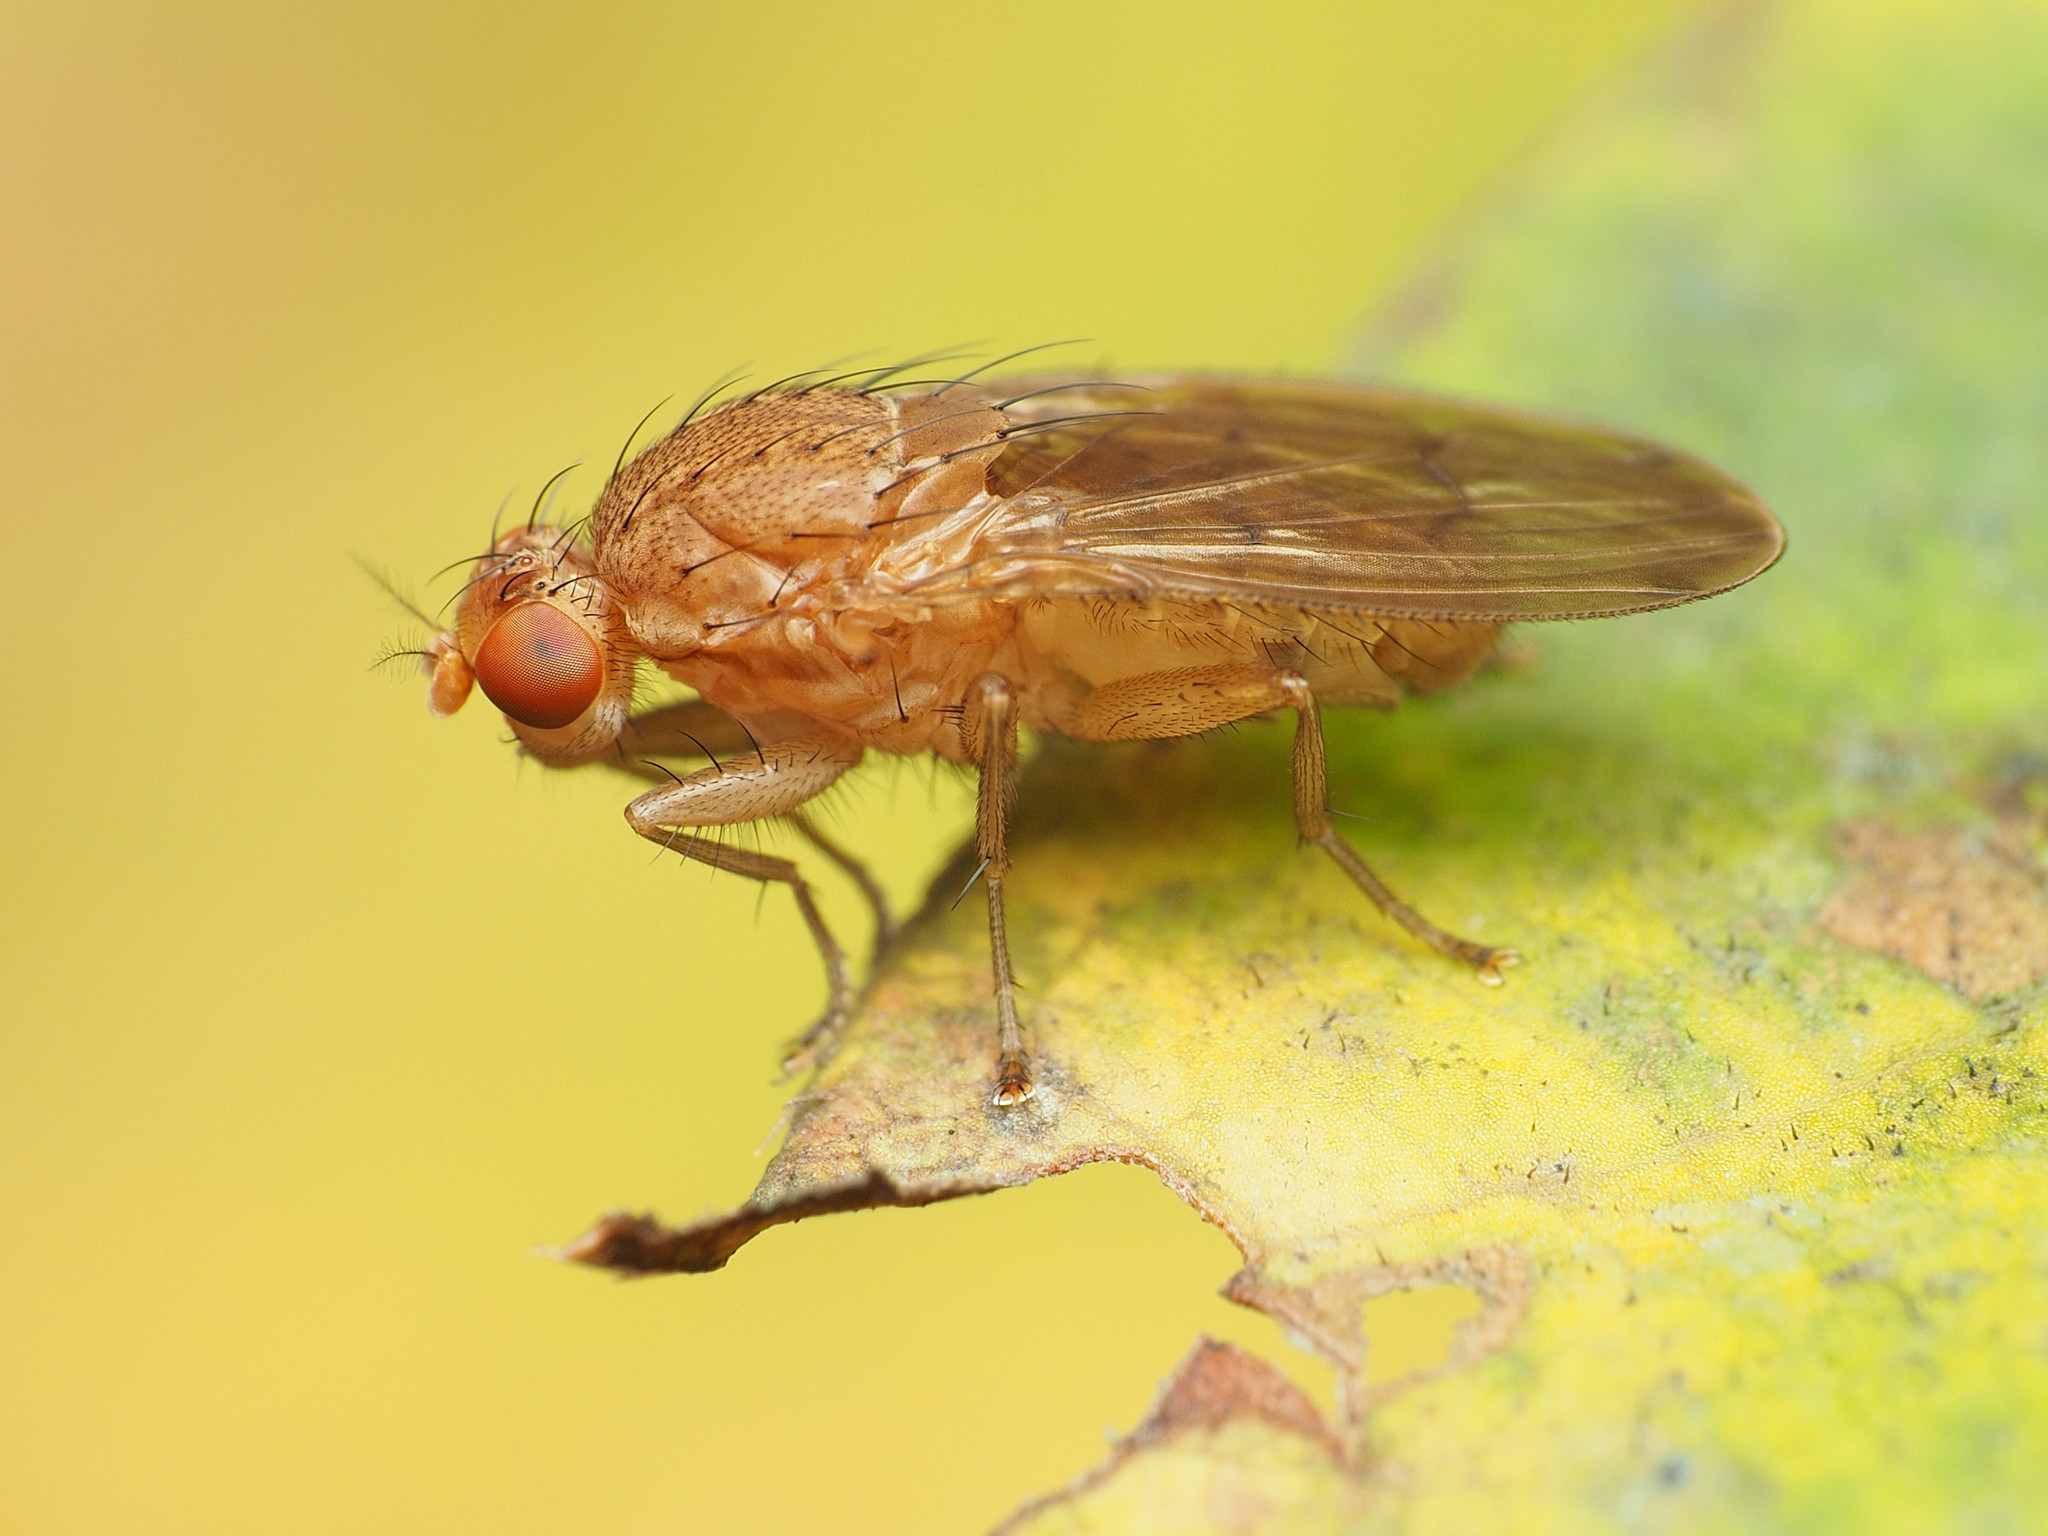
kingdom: Animalia
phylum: Arthropoda
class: Insecta
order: Diptera
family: Heleomyzidae
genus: Suillia
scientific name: Suillia plumata
